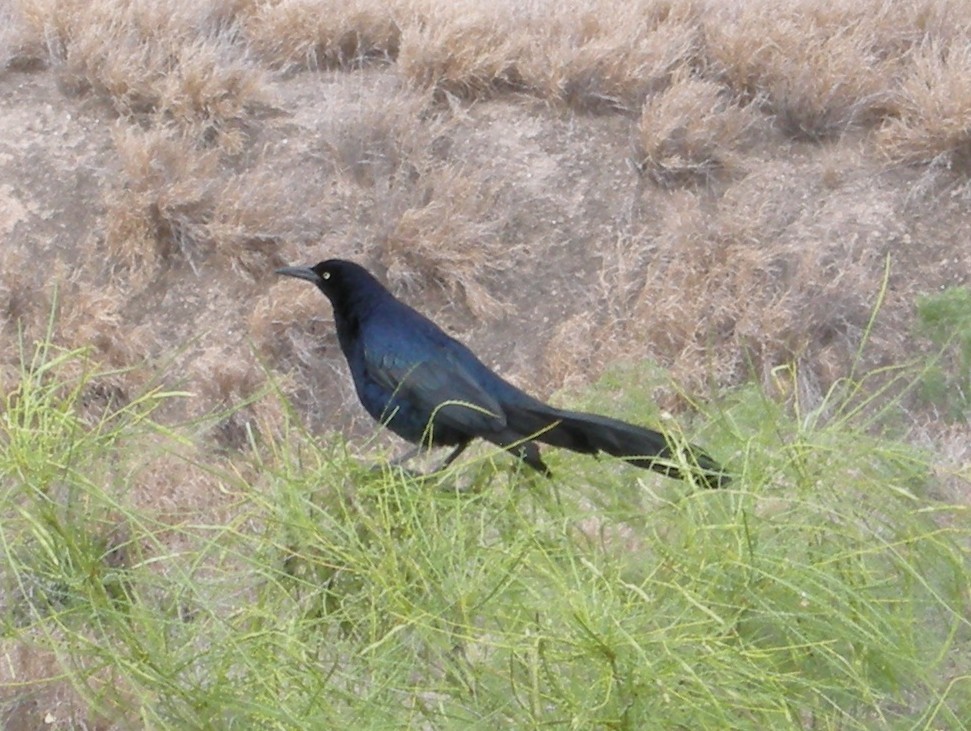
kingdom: Animalia
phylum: Chordata
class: Aves
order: Passeriformes
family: Icteridae
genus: Quiscalus
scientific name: Quiscalus mexicanus
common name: Great-tailed grackle
